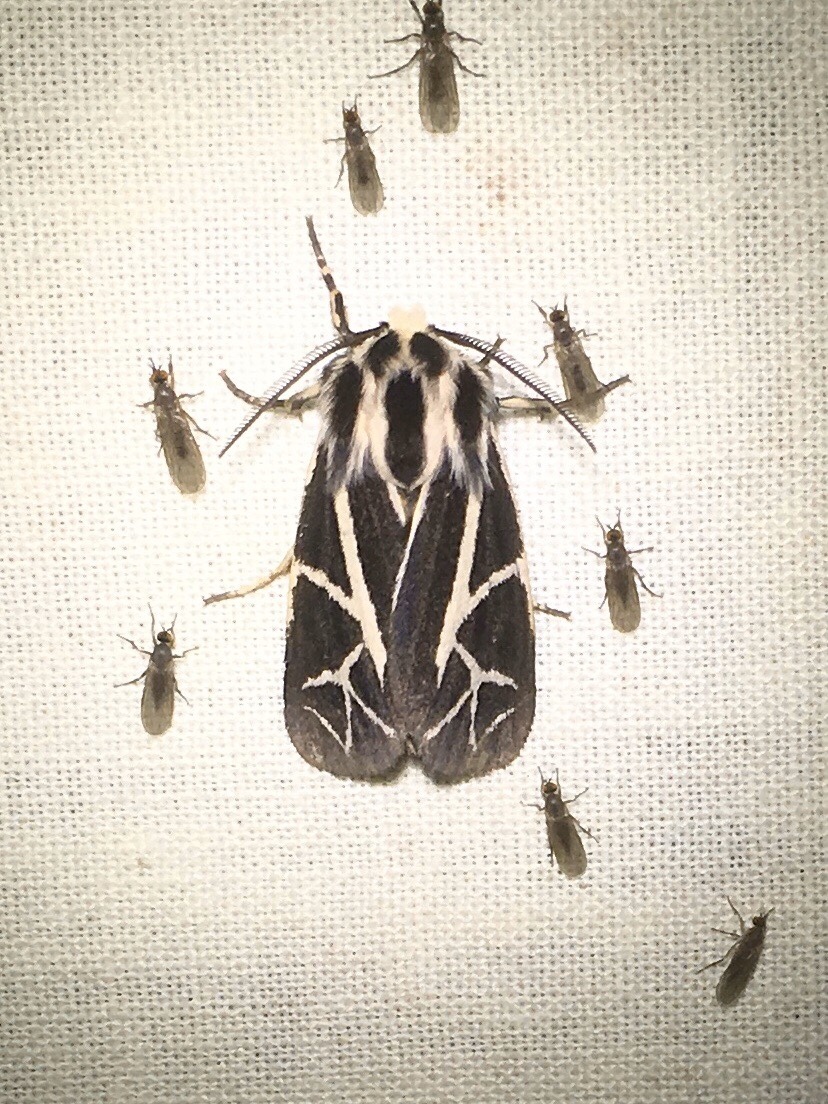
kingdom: Animalia
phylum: Arthropoda
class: Insecta
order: Lepidoptera
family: Erebidae
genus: Apantesis
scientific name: Apantesis
